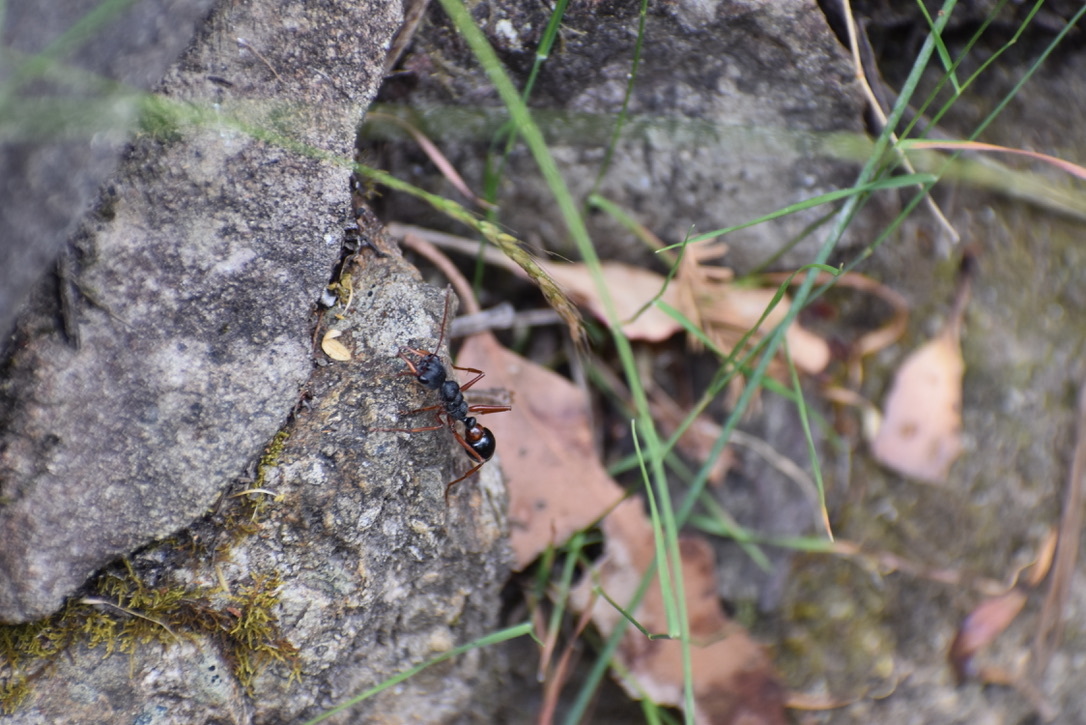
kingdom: Animalia
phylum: Arthropoda
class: Insecta
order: Hymenoptera
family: Formicidae
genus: Myrmecia
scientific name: Myrmecia esuriens
